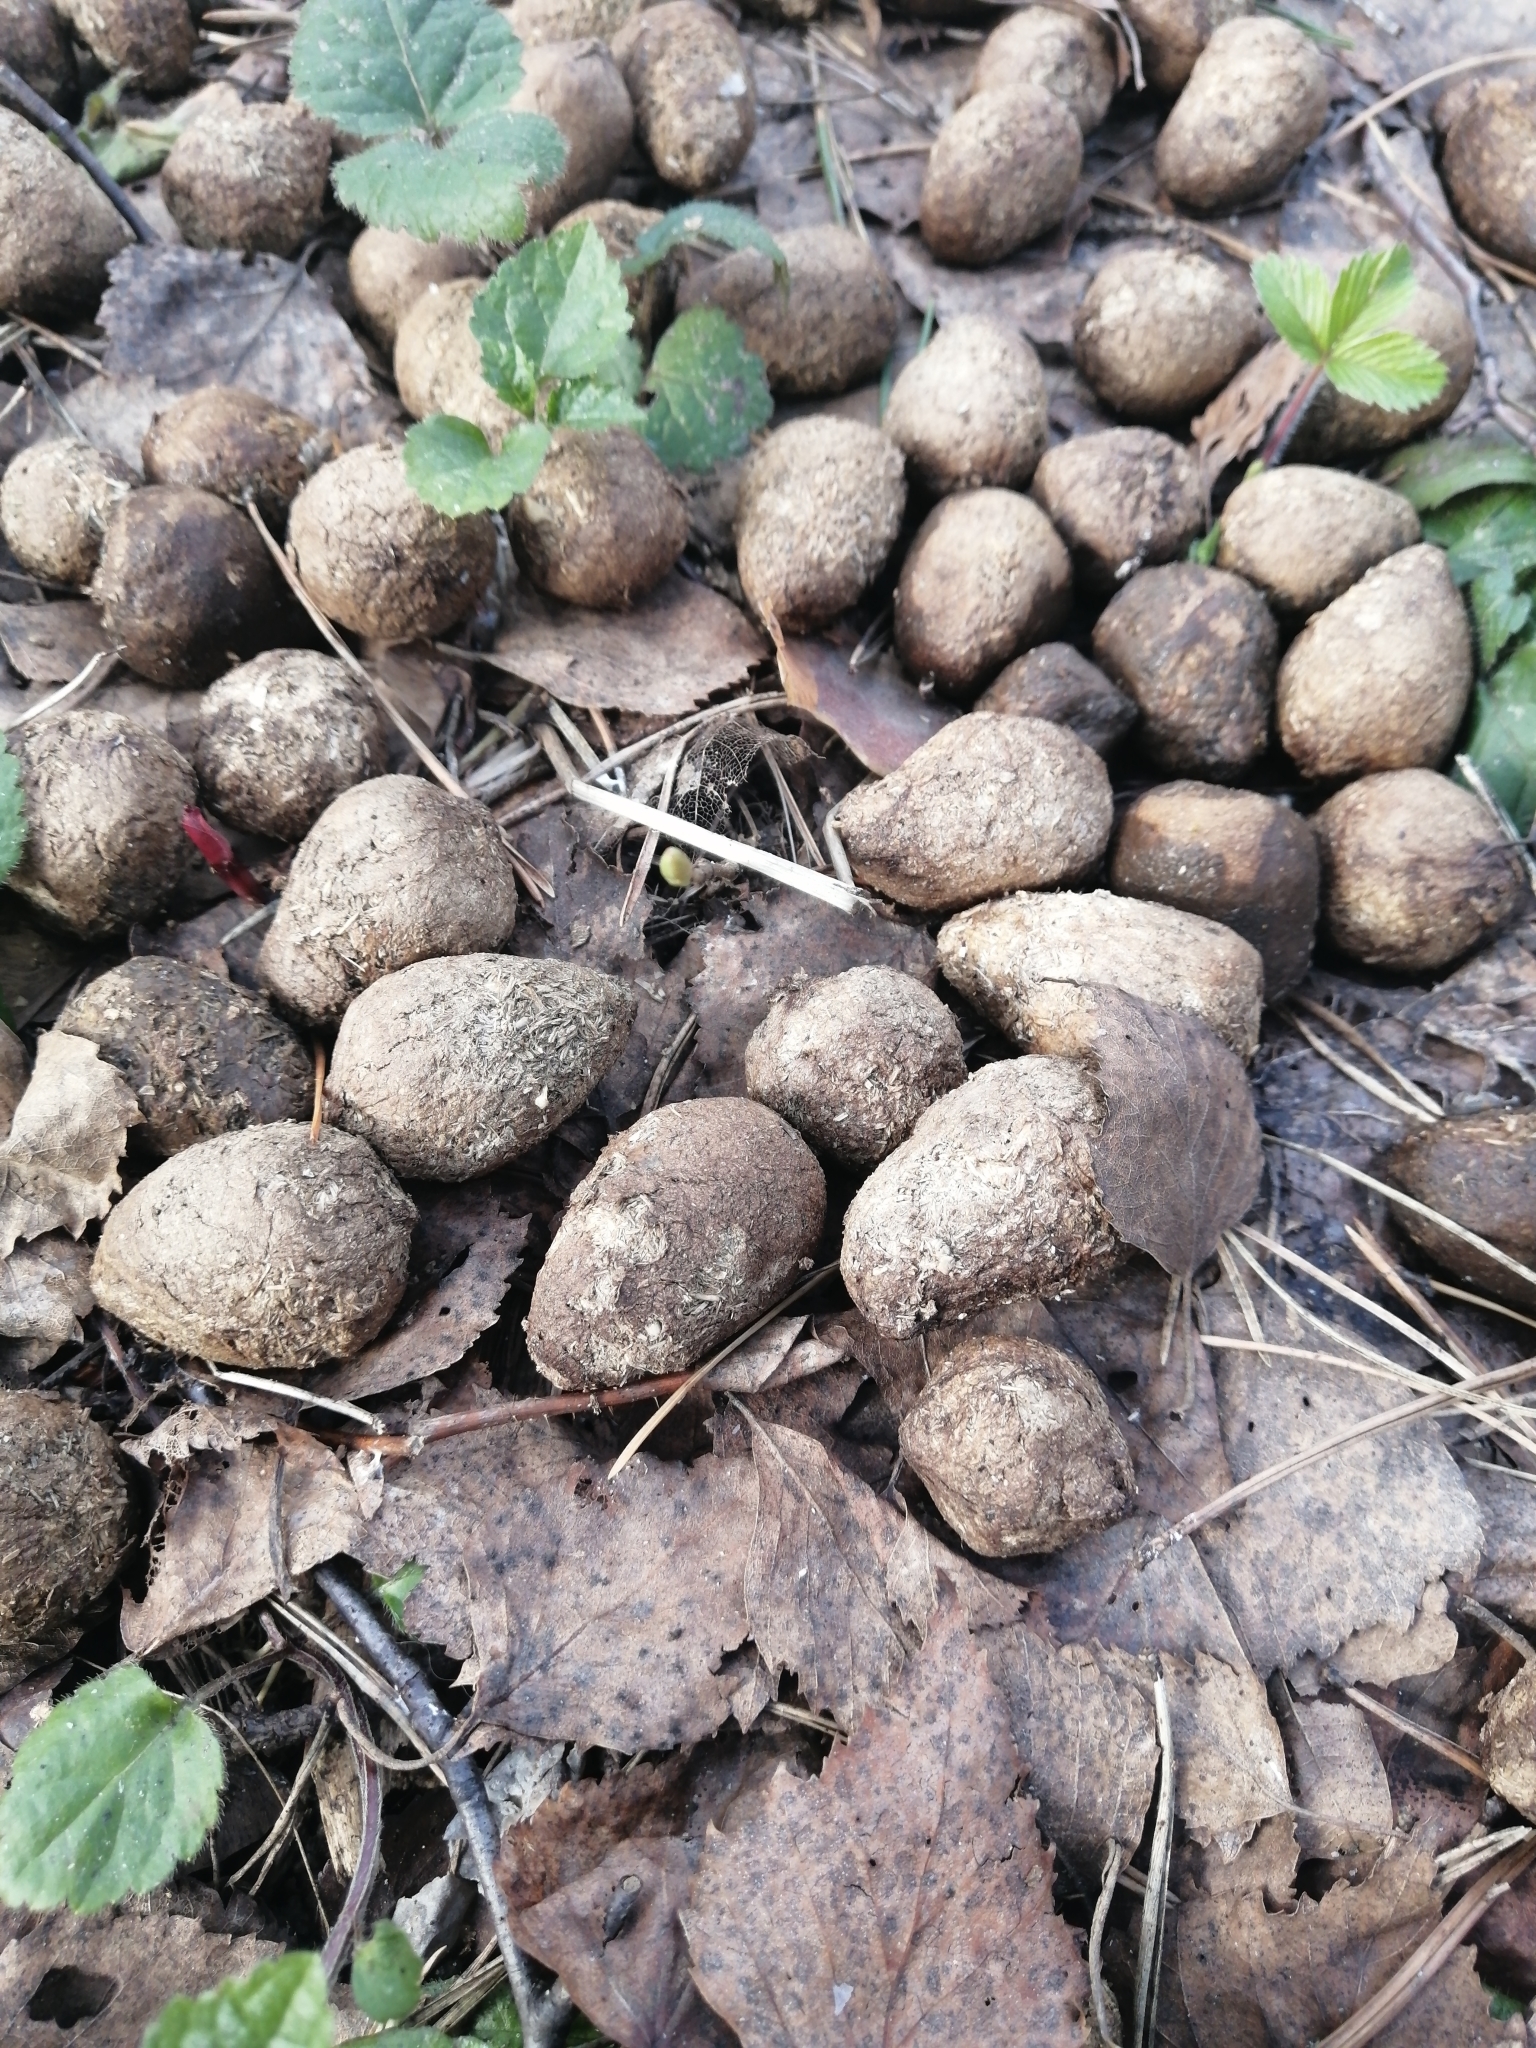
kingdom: Animalia
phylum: Chordata
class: Mammalia
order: Artiodactyla
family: Cervidae
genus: Alces
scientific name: Alces alces
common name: Moose
